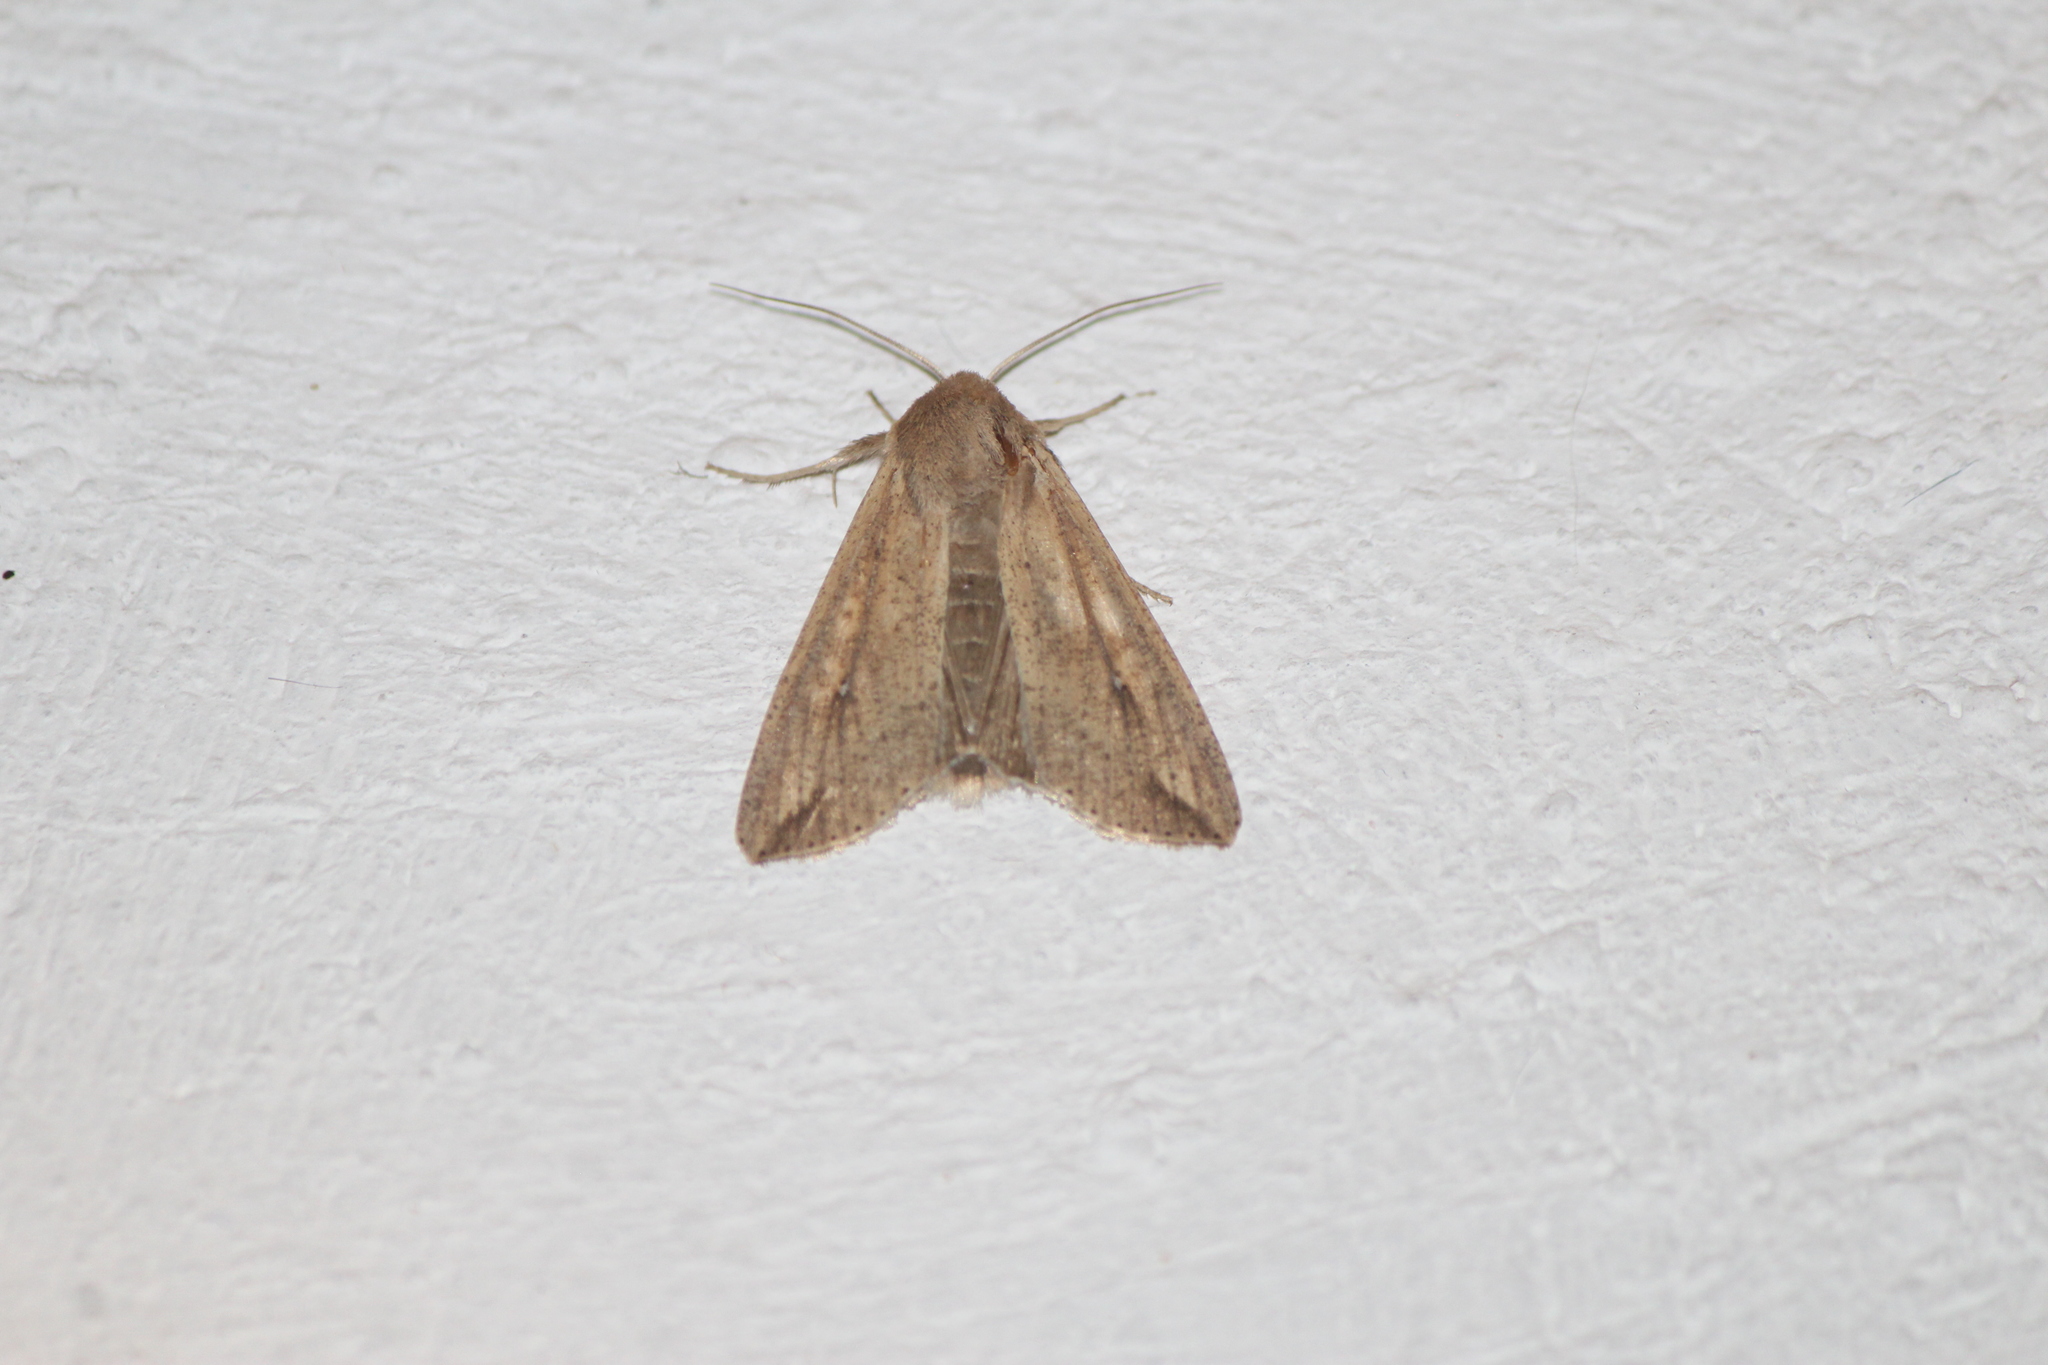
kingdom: Animalia
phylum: Arthropoda
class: Insecta
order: Lepidoptera
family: Noctuidae
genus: Mythimna
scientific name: Mythimna unipuncta
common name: White-speck
